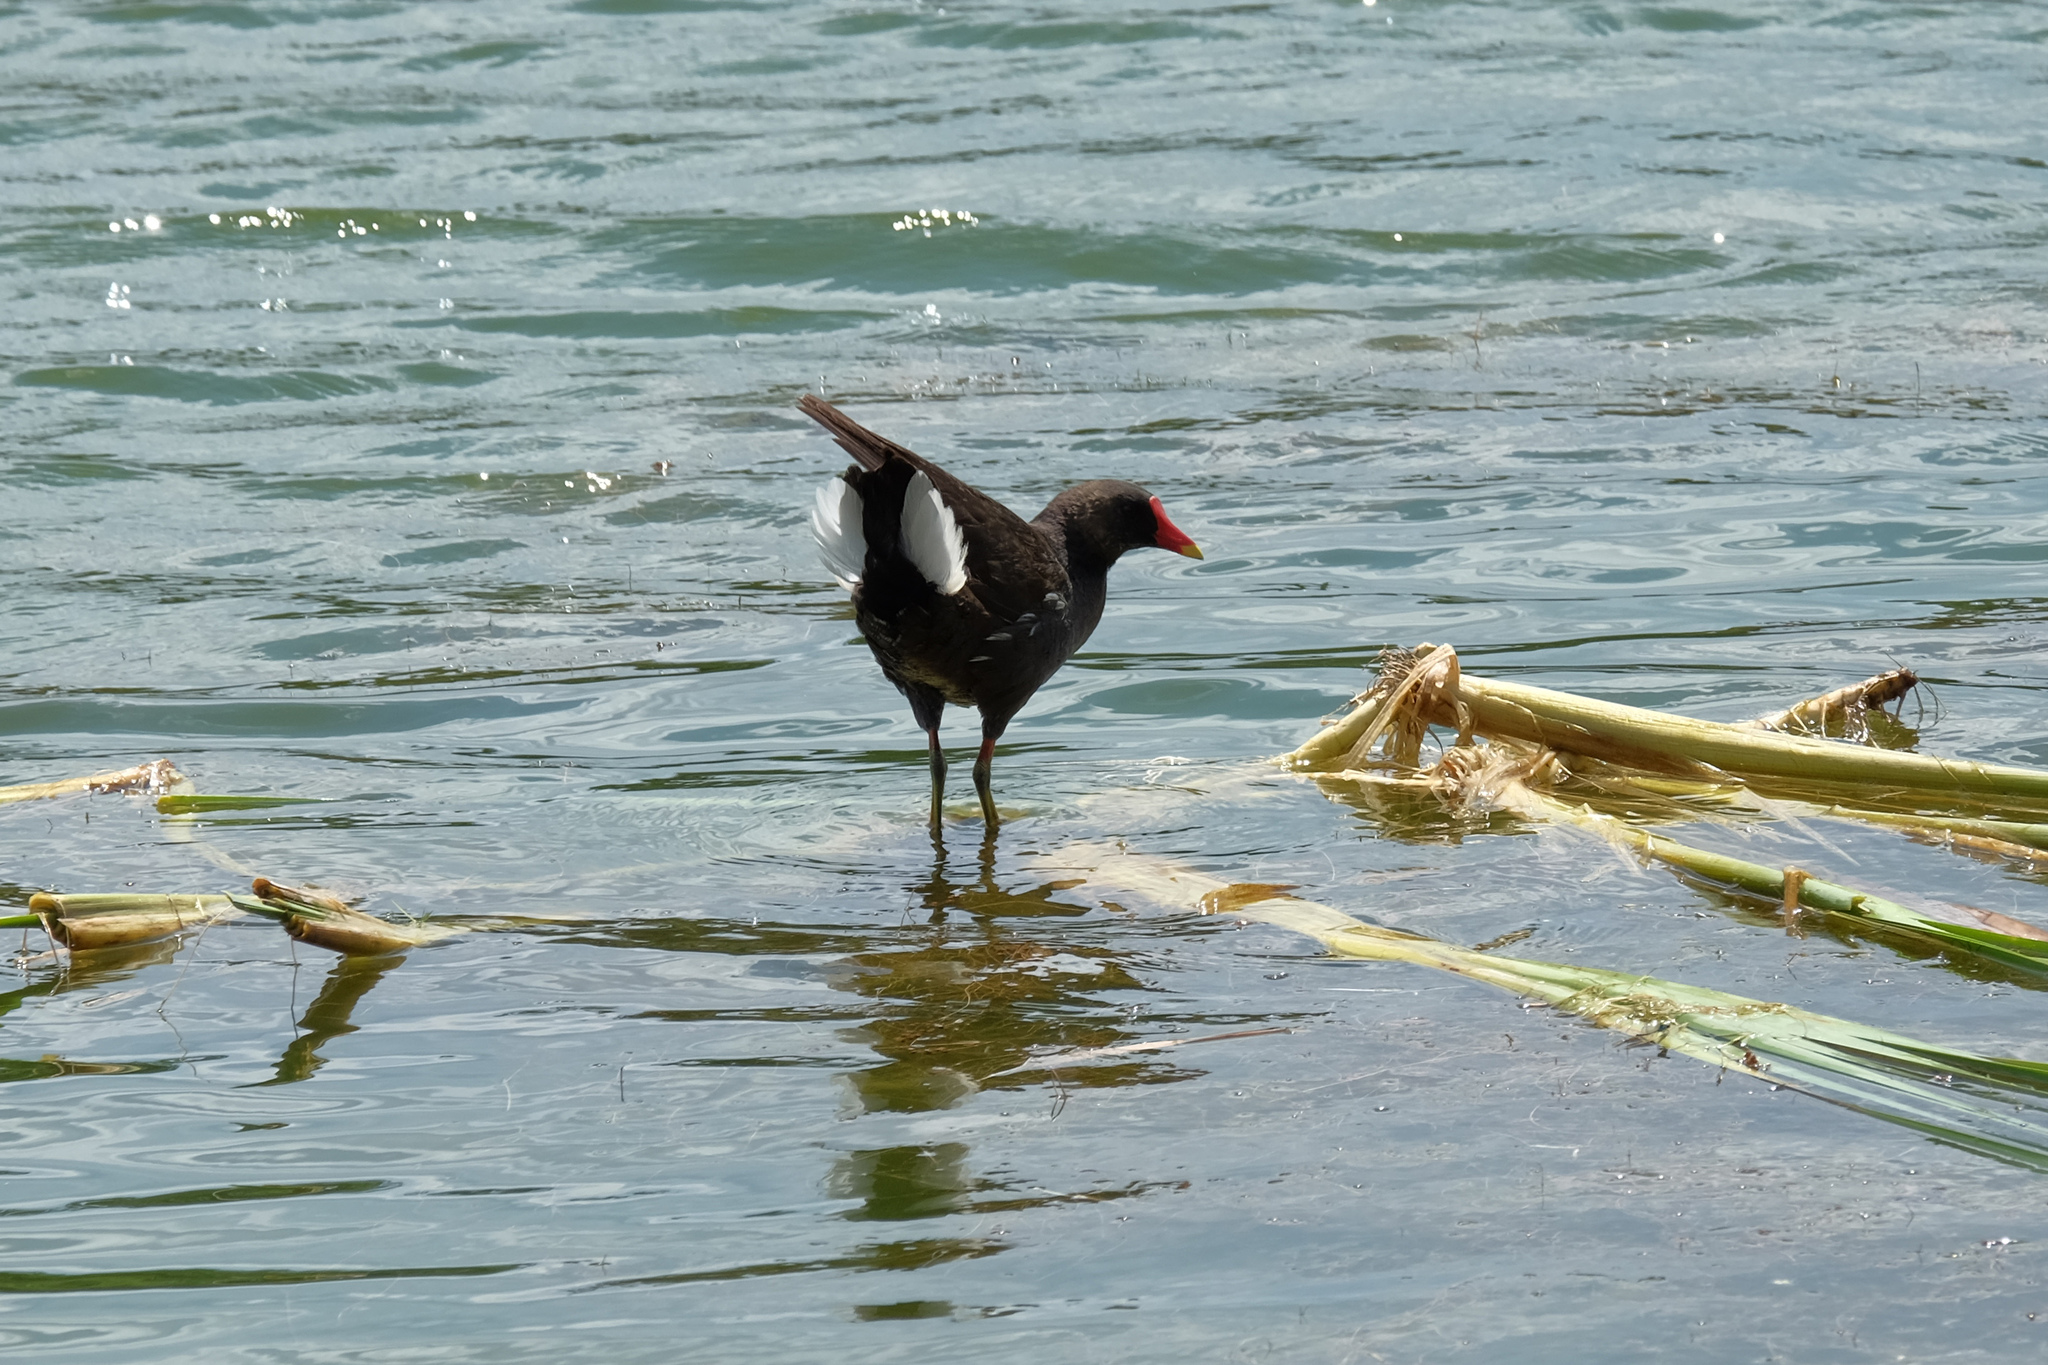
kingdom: Animalia
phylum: Chordata
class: Aves
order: Gruiformes
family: Rallidae
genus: Gallinula
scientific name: Gallinula chloropus
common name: Common moorhen
